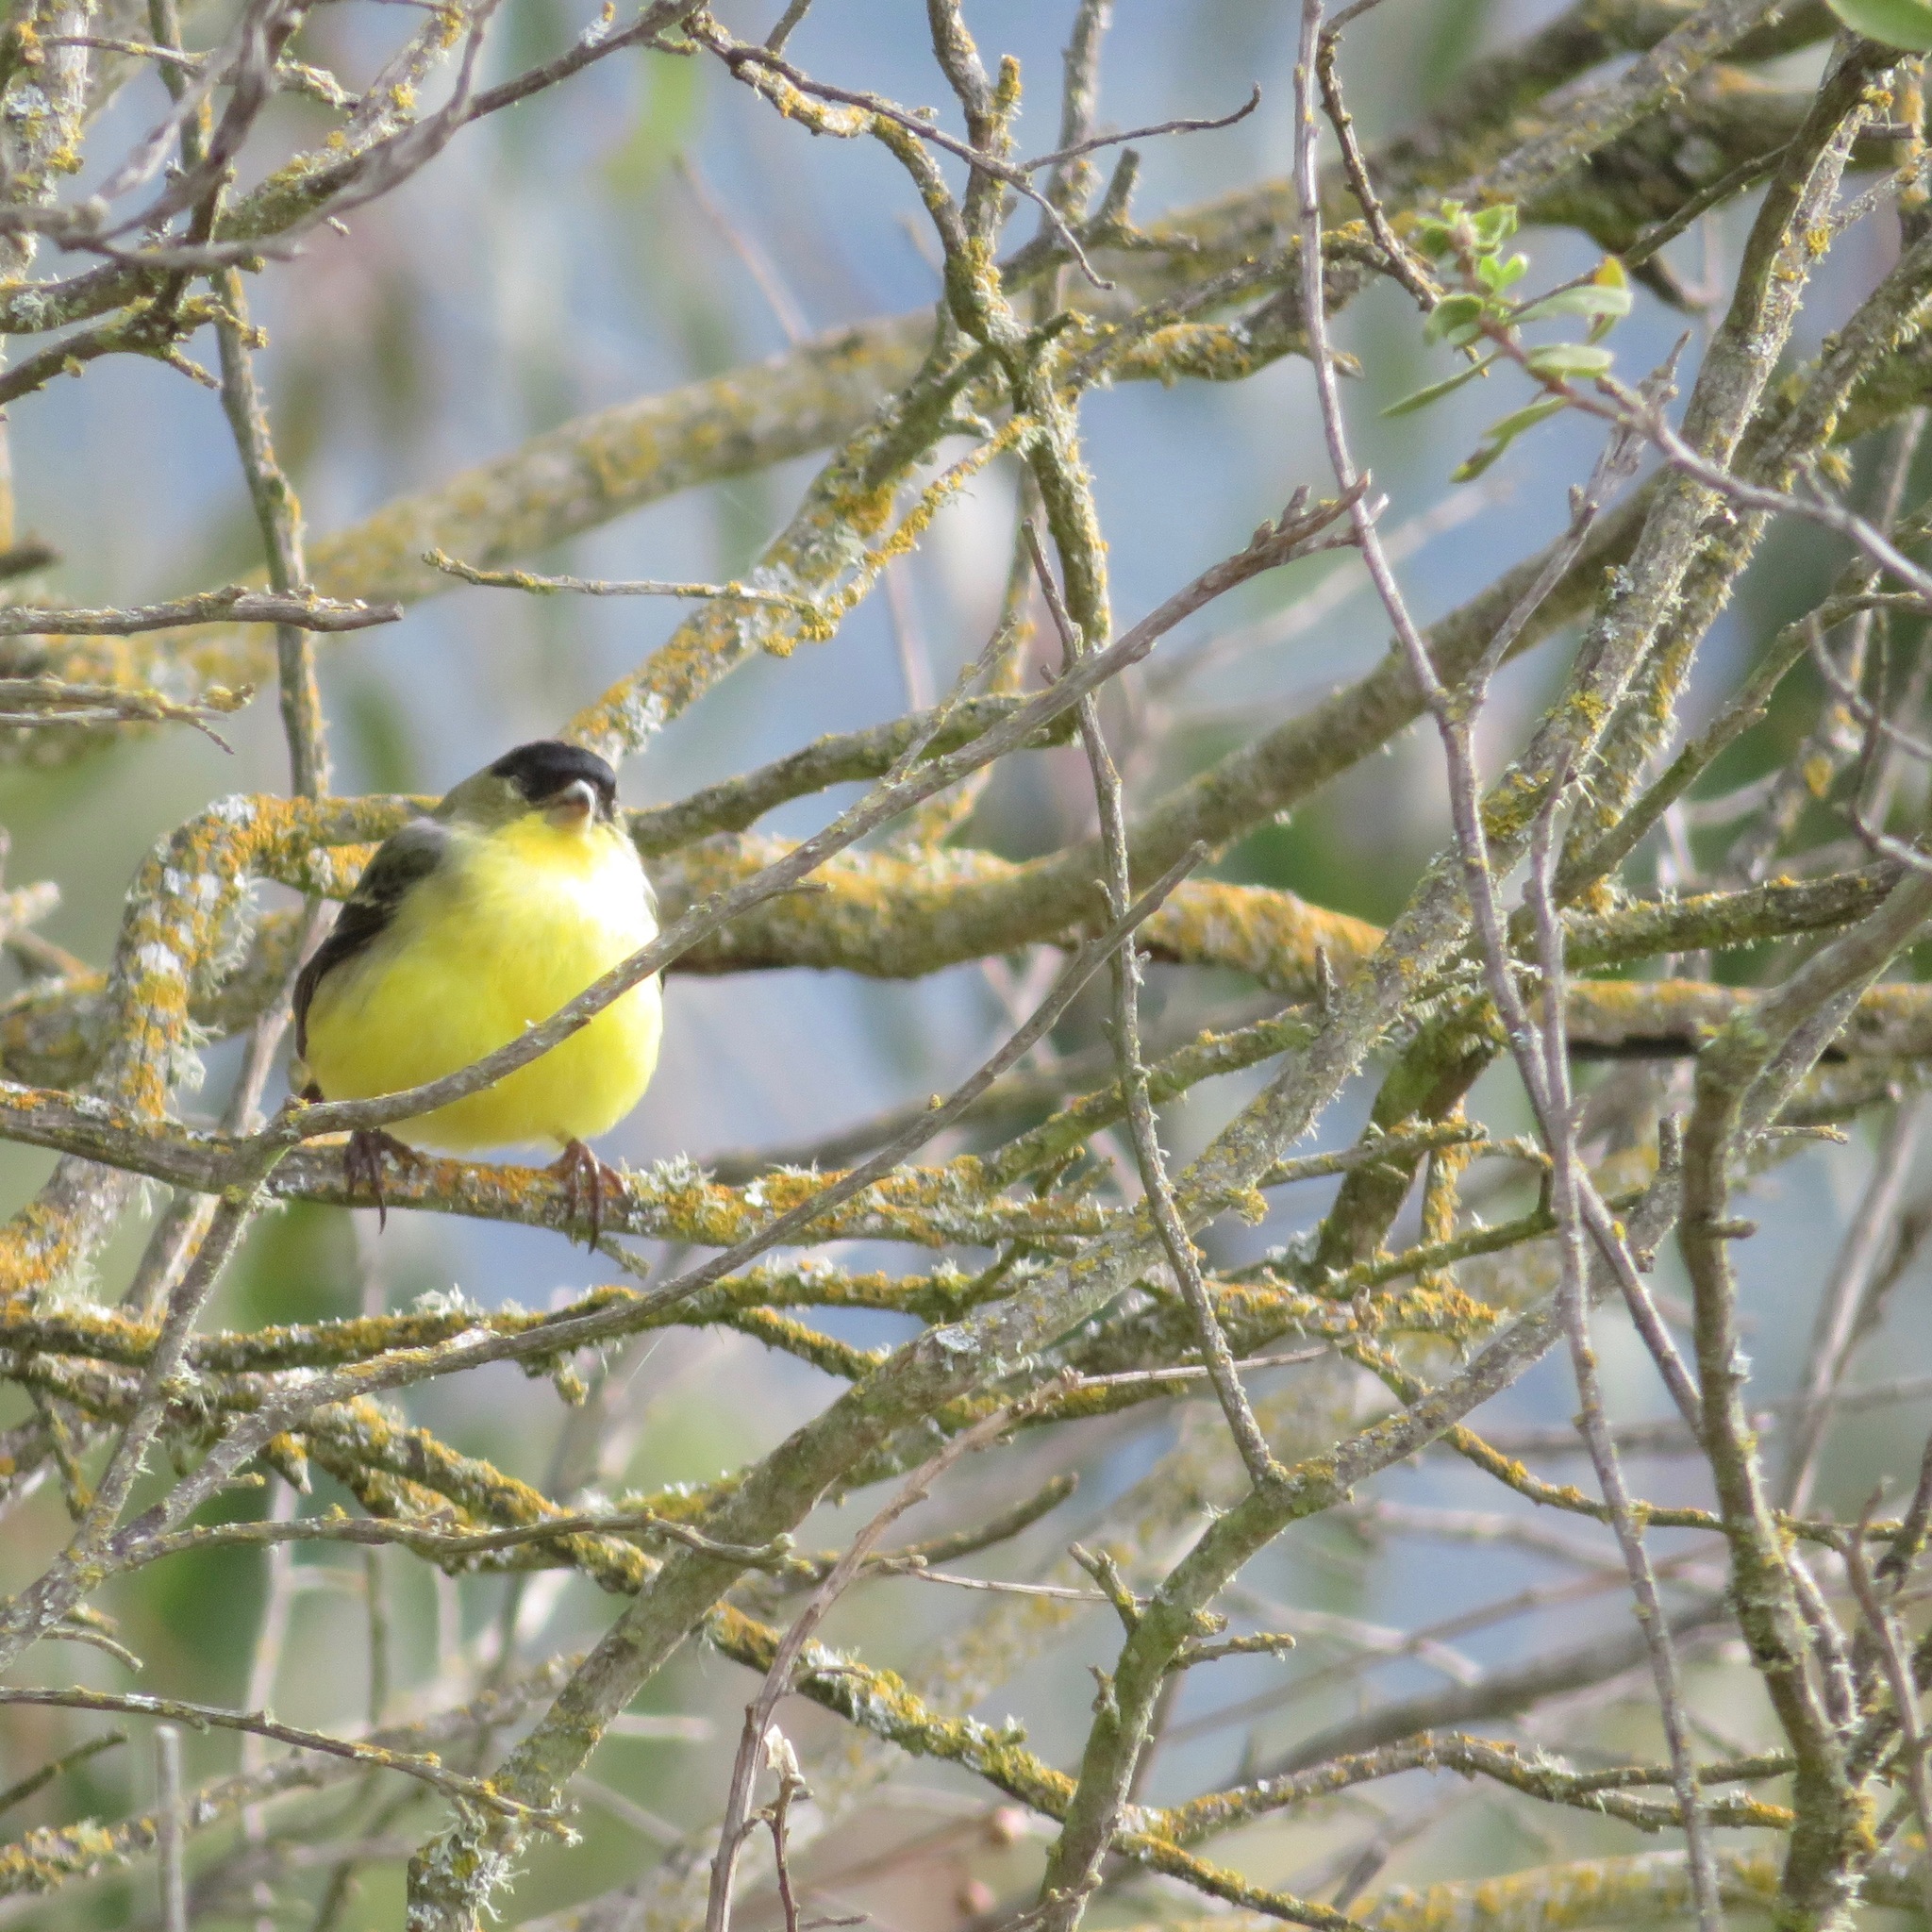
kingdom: Animalia
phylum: Chordata
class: Aves
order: Passeriformes
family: Fringillidae
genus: Spinus
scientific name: Spinus psaltria
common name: Lesser goldfinch
